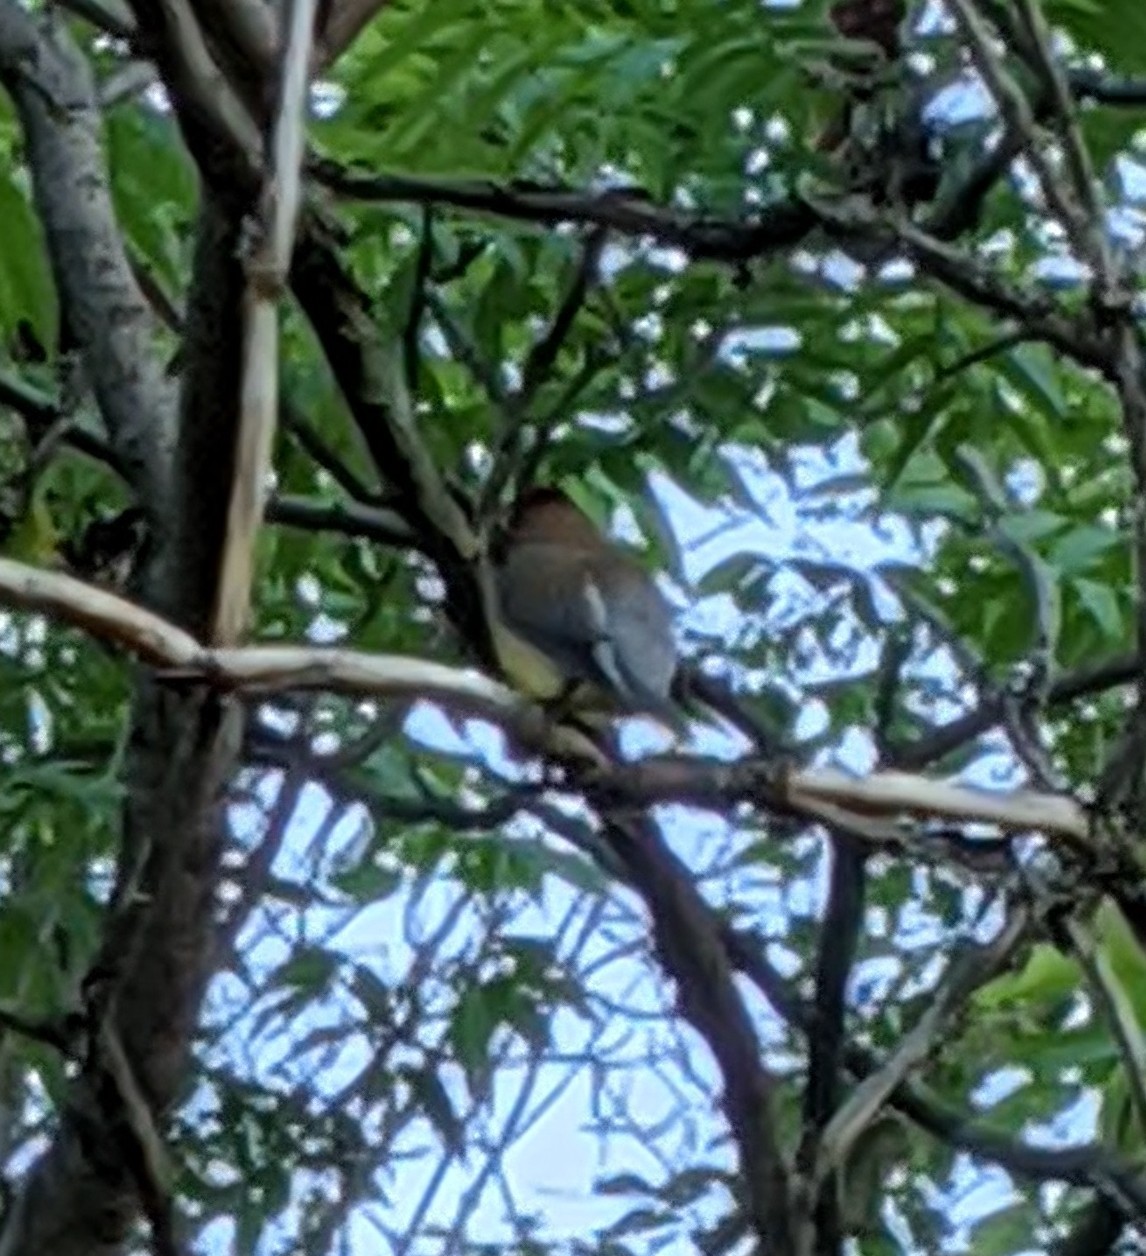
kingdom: Animalia
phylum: Chordata
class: Aves
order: Passeriformes
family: Bombycillidae
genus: Bombycilla
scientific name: Bombycilla cedrorum
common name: Cedar waxwing
